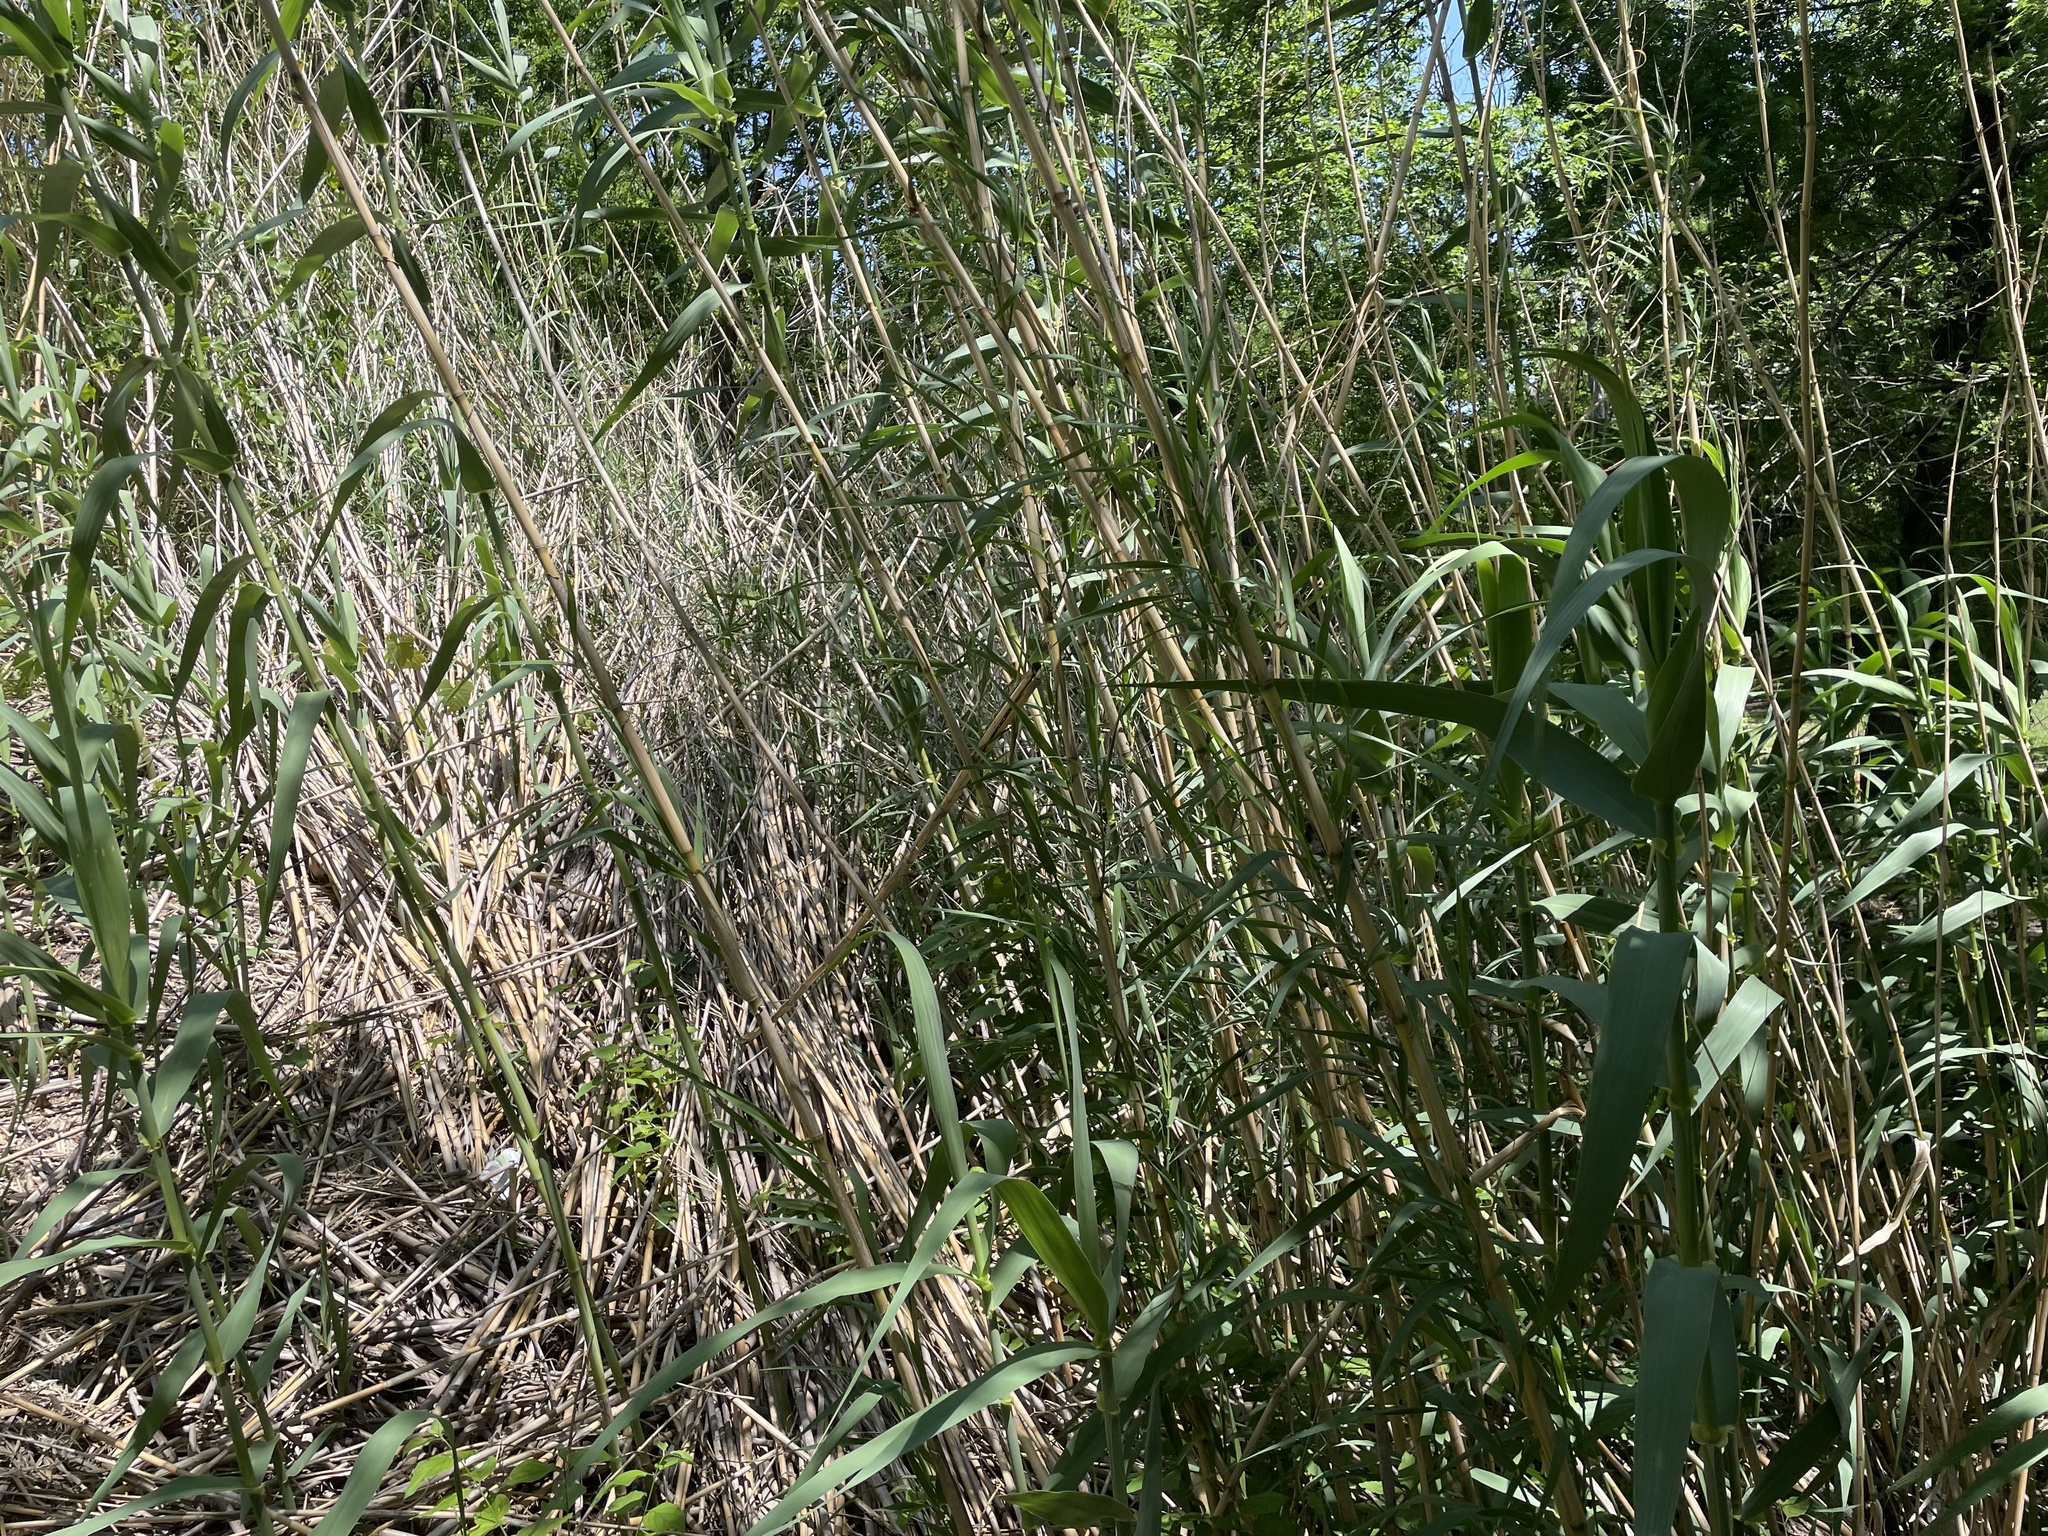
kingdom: Plantae
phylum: Tracheophyta
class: Liliopsida
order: Poales
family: Poaceae
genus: Arundo
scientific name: Arundo donax
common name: Giant reed
